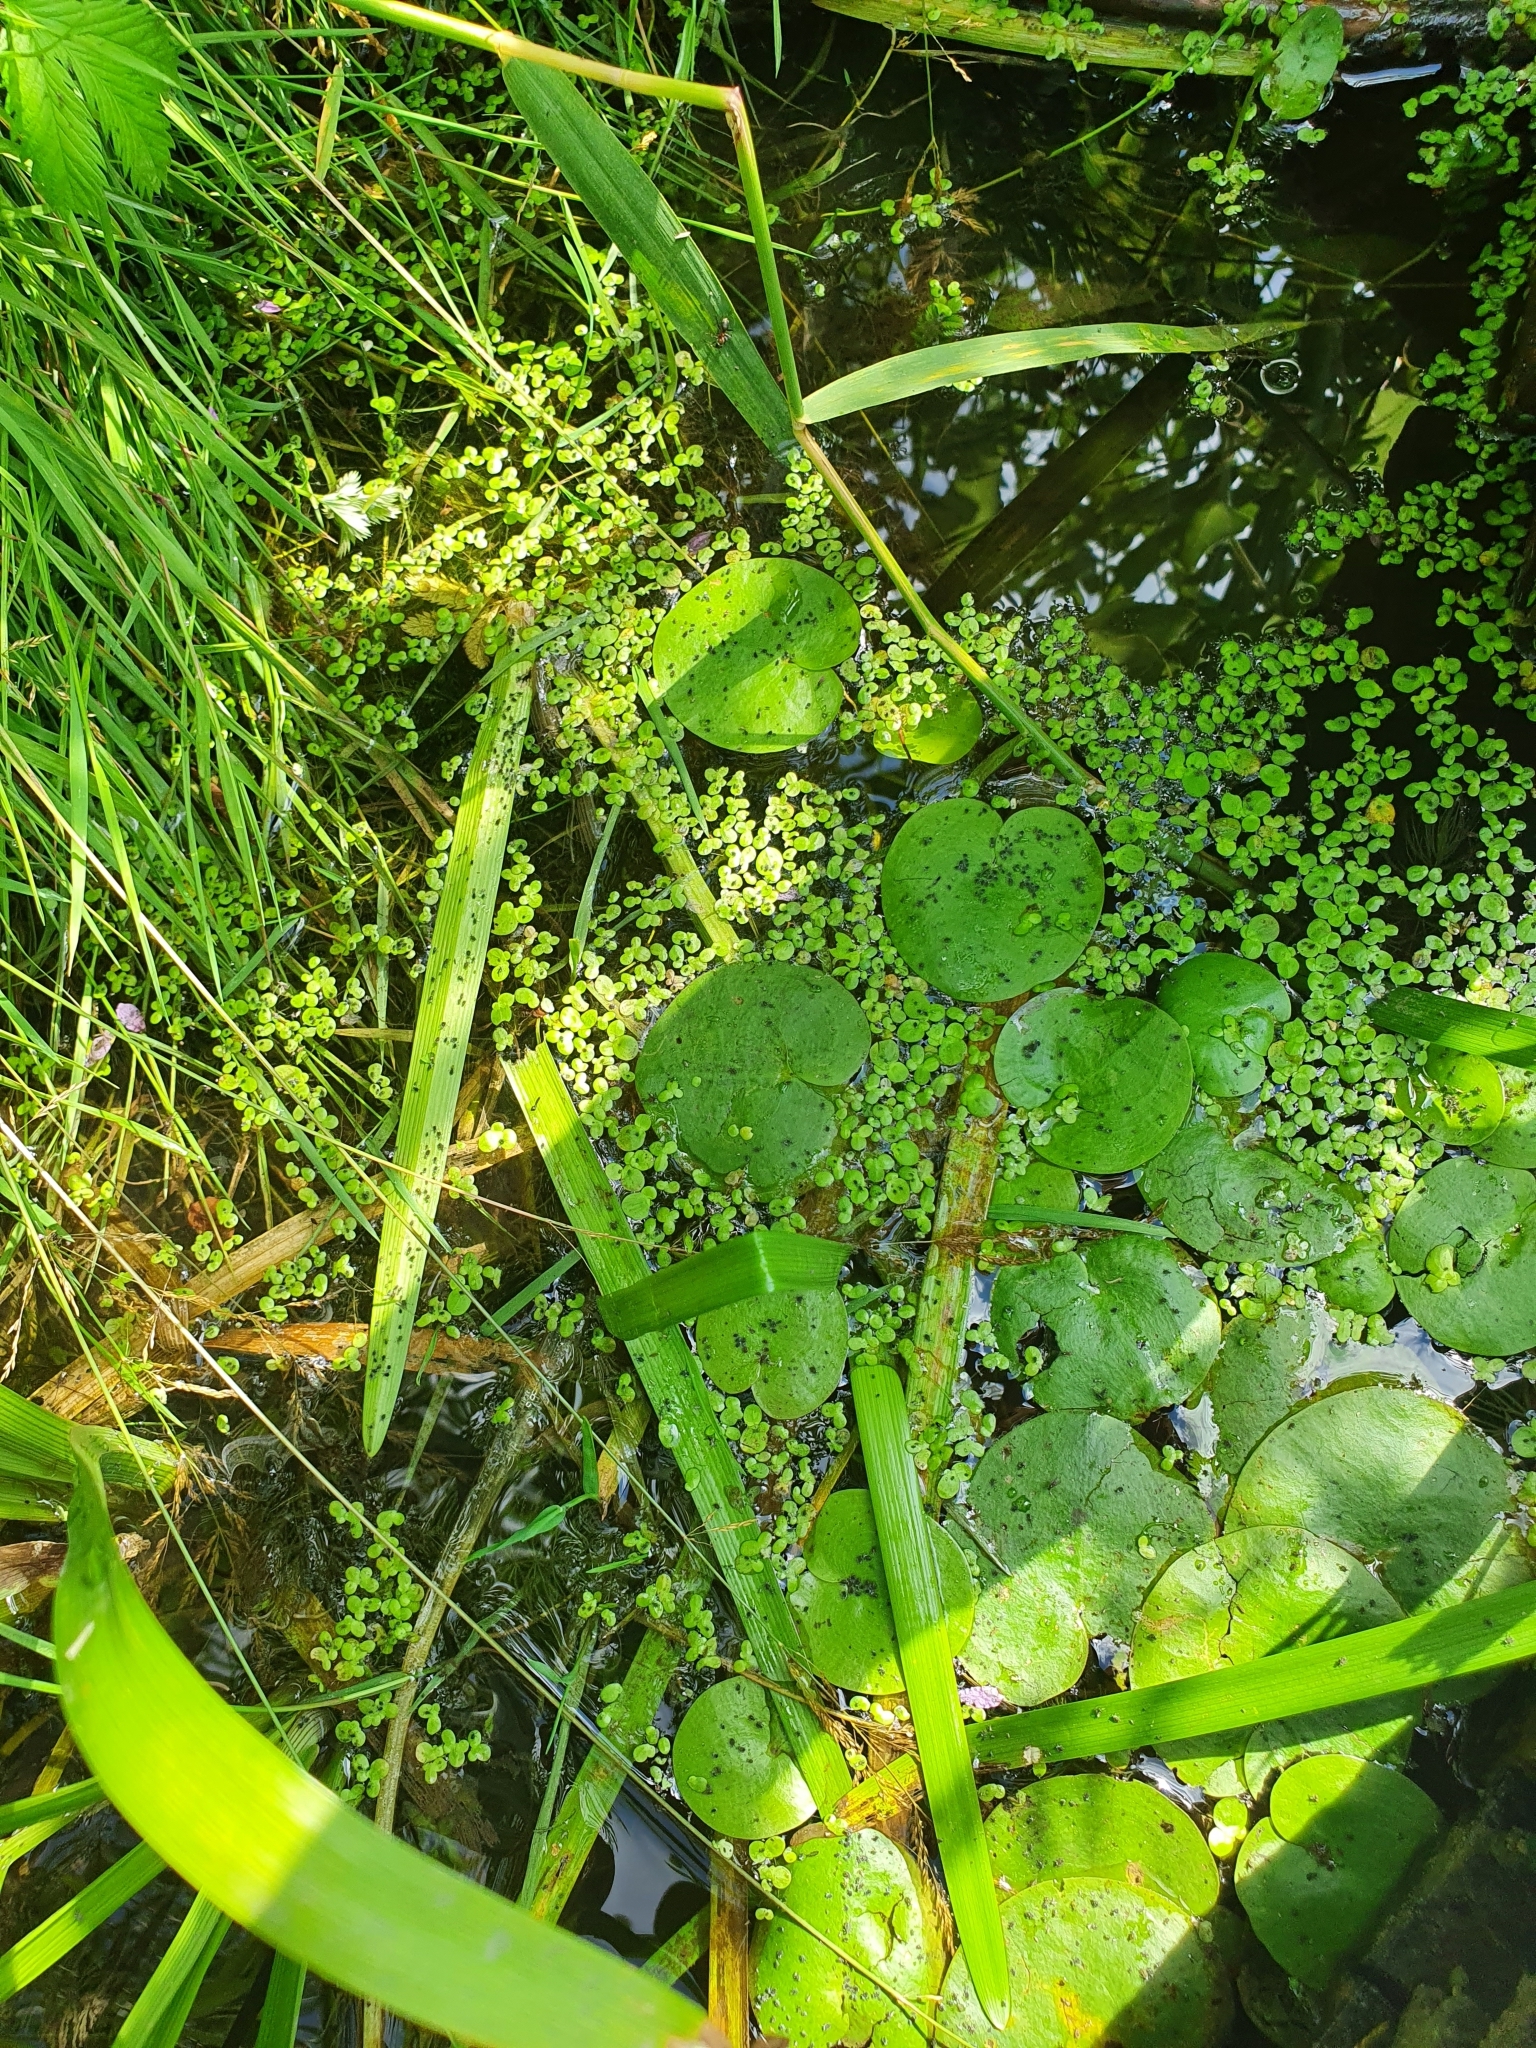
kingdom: Plantae
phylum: Tracheophyta
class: Liliopsida
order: Alismatales
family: Hydrocharitaceae
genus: Hydrocharis
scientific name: Hydrocharis morsus-ranae
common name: Frogbit
